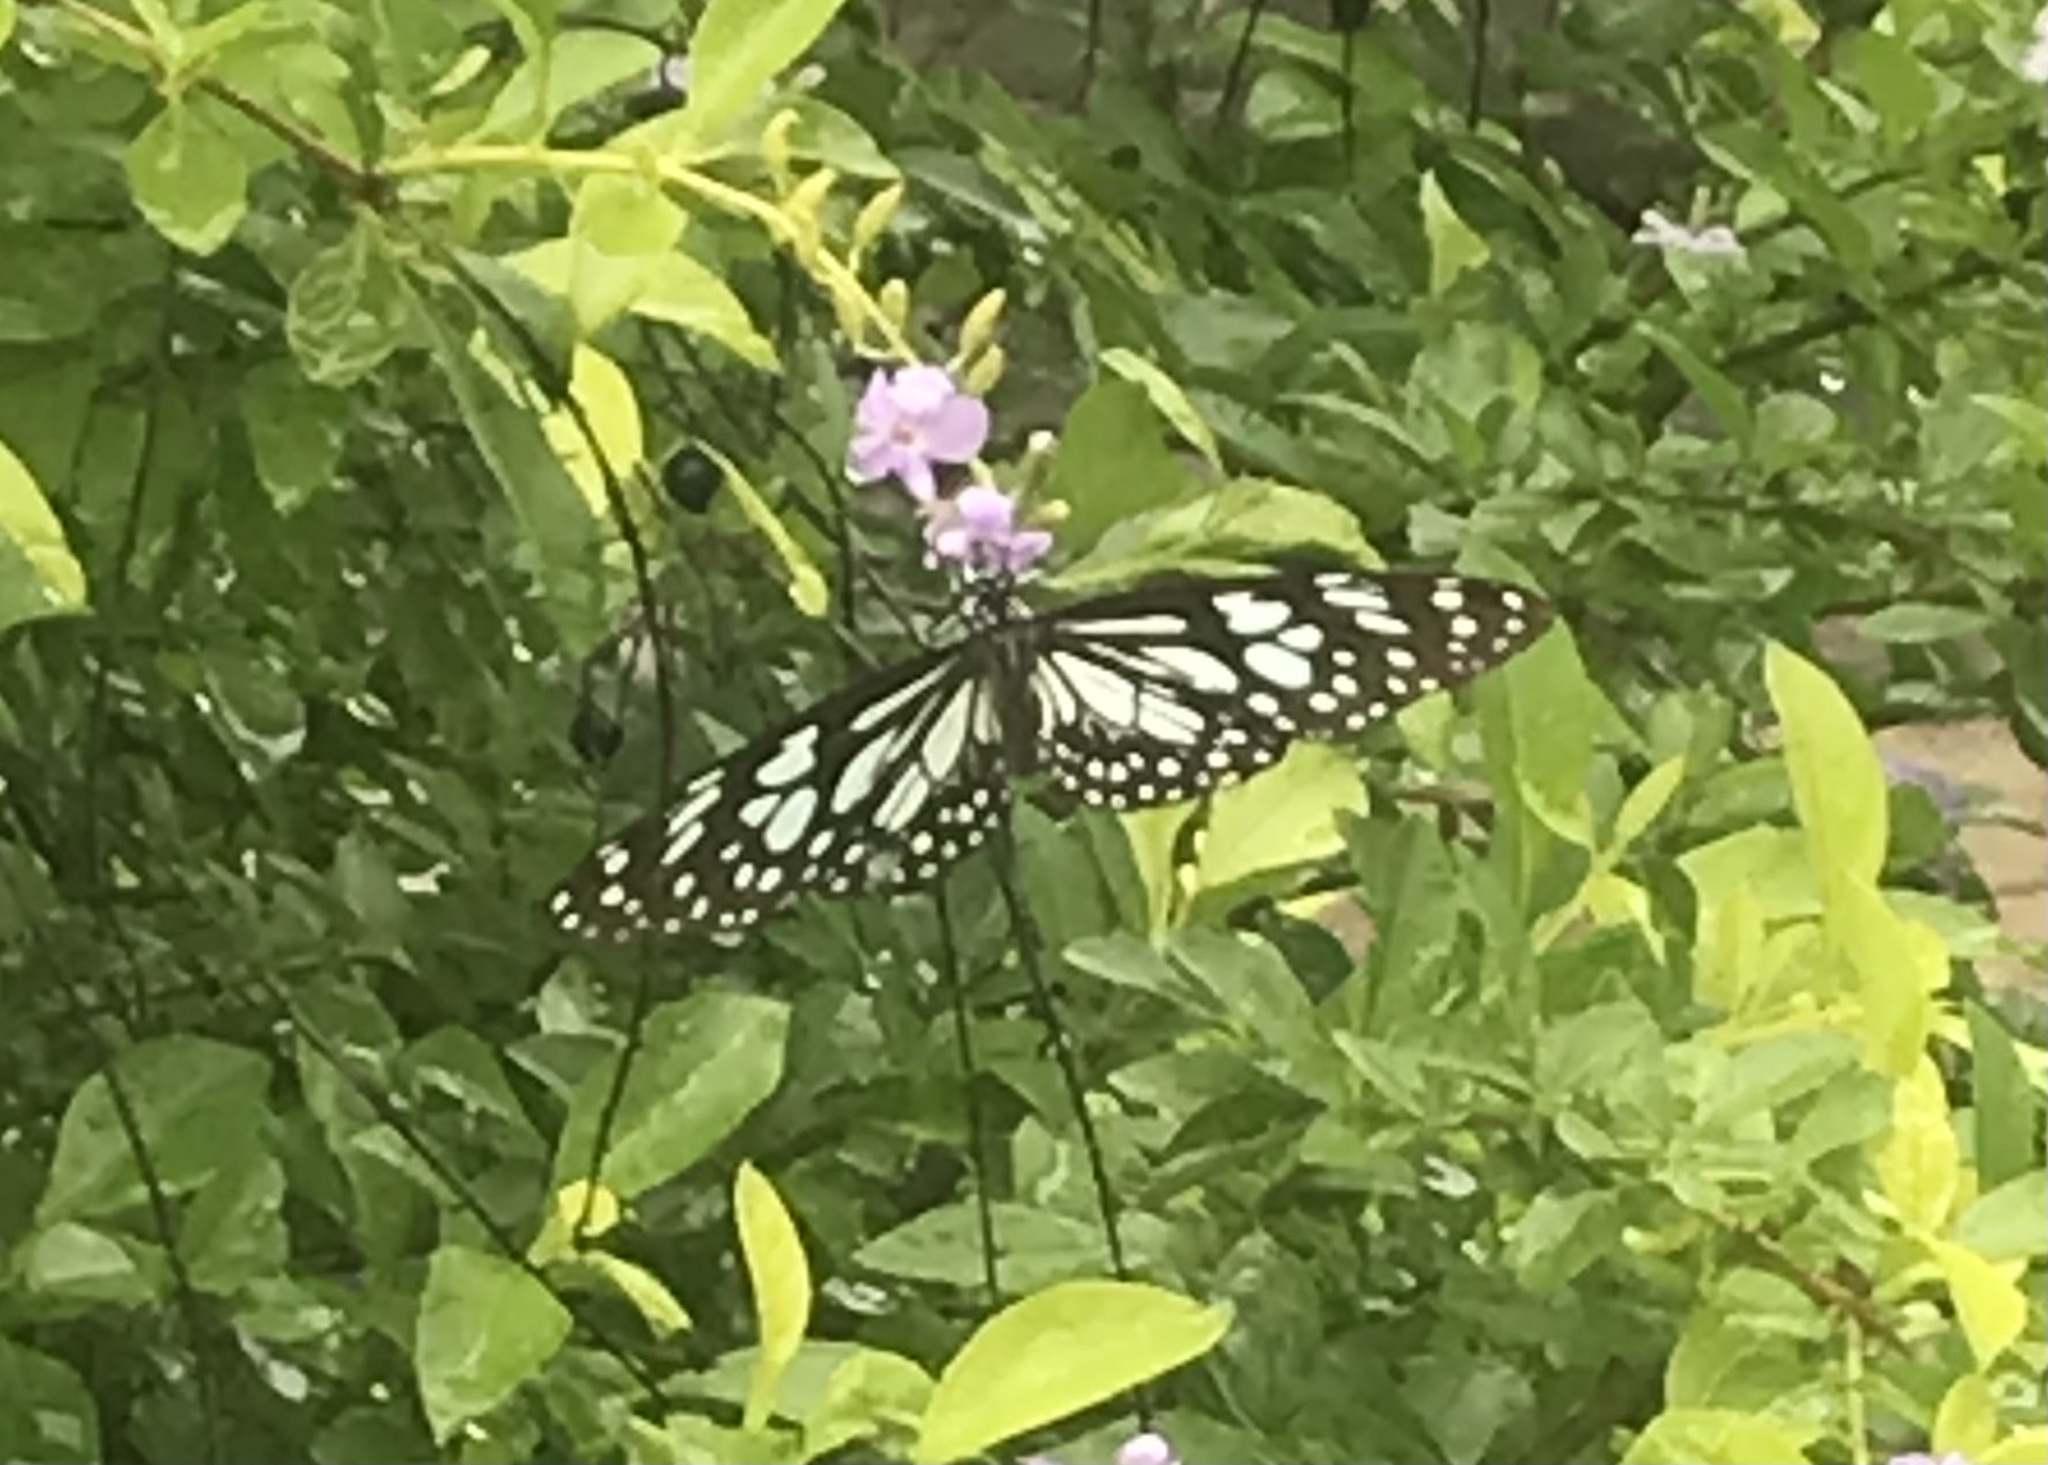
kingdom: Animalia
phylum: Arthropoda
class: Insecta
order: Lepidoptera
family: Nymphalidae
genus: Tirumala
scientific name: Tirumala limniace
